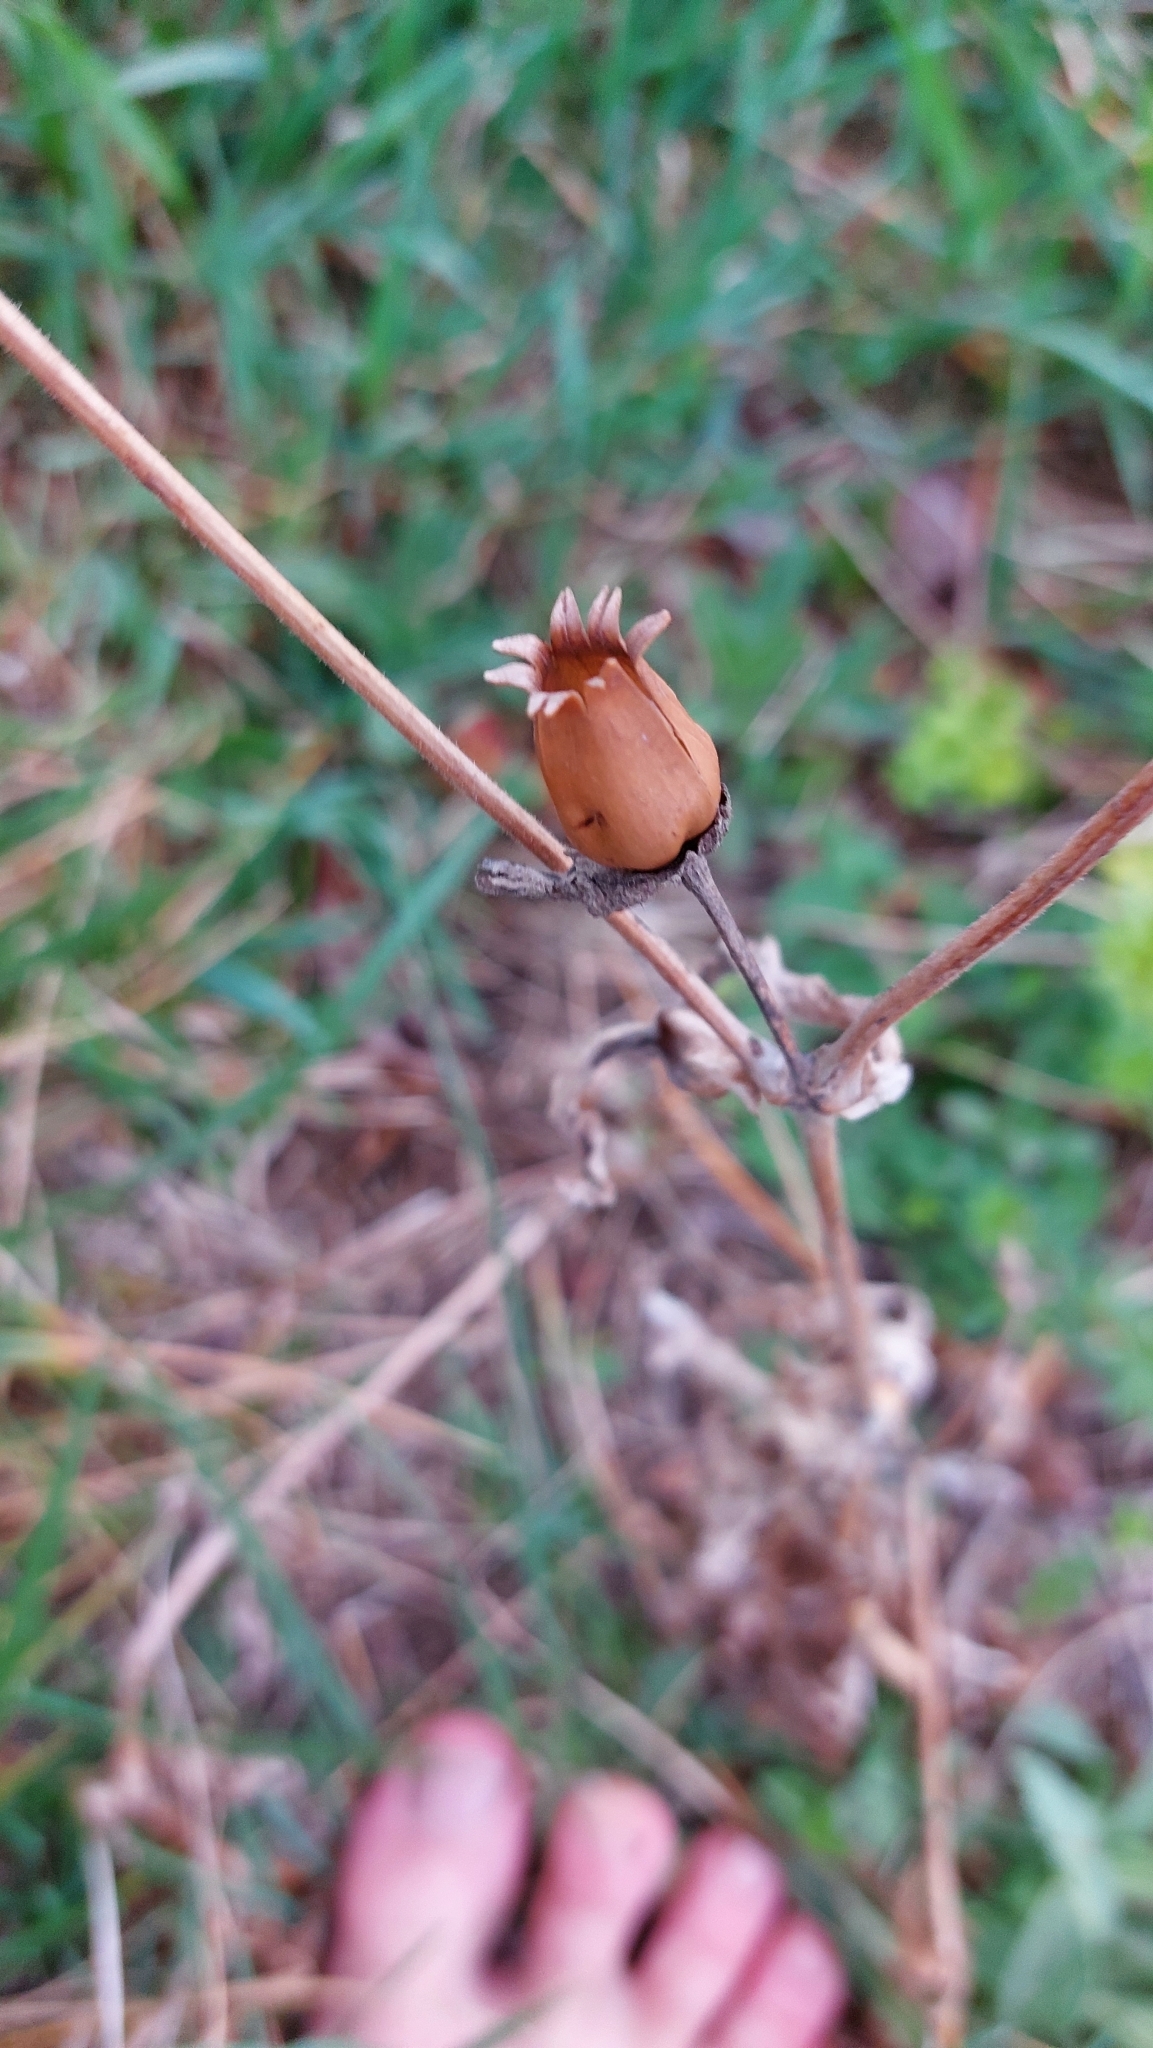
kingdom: Plantae
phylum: Tracheophyta
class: Magnoliopsida
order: Caryophyllales
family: Caryophyllaceae
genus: Silene
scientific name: Silene latifolia
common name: White campion
